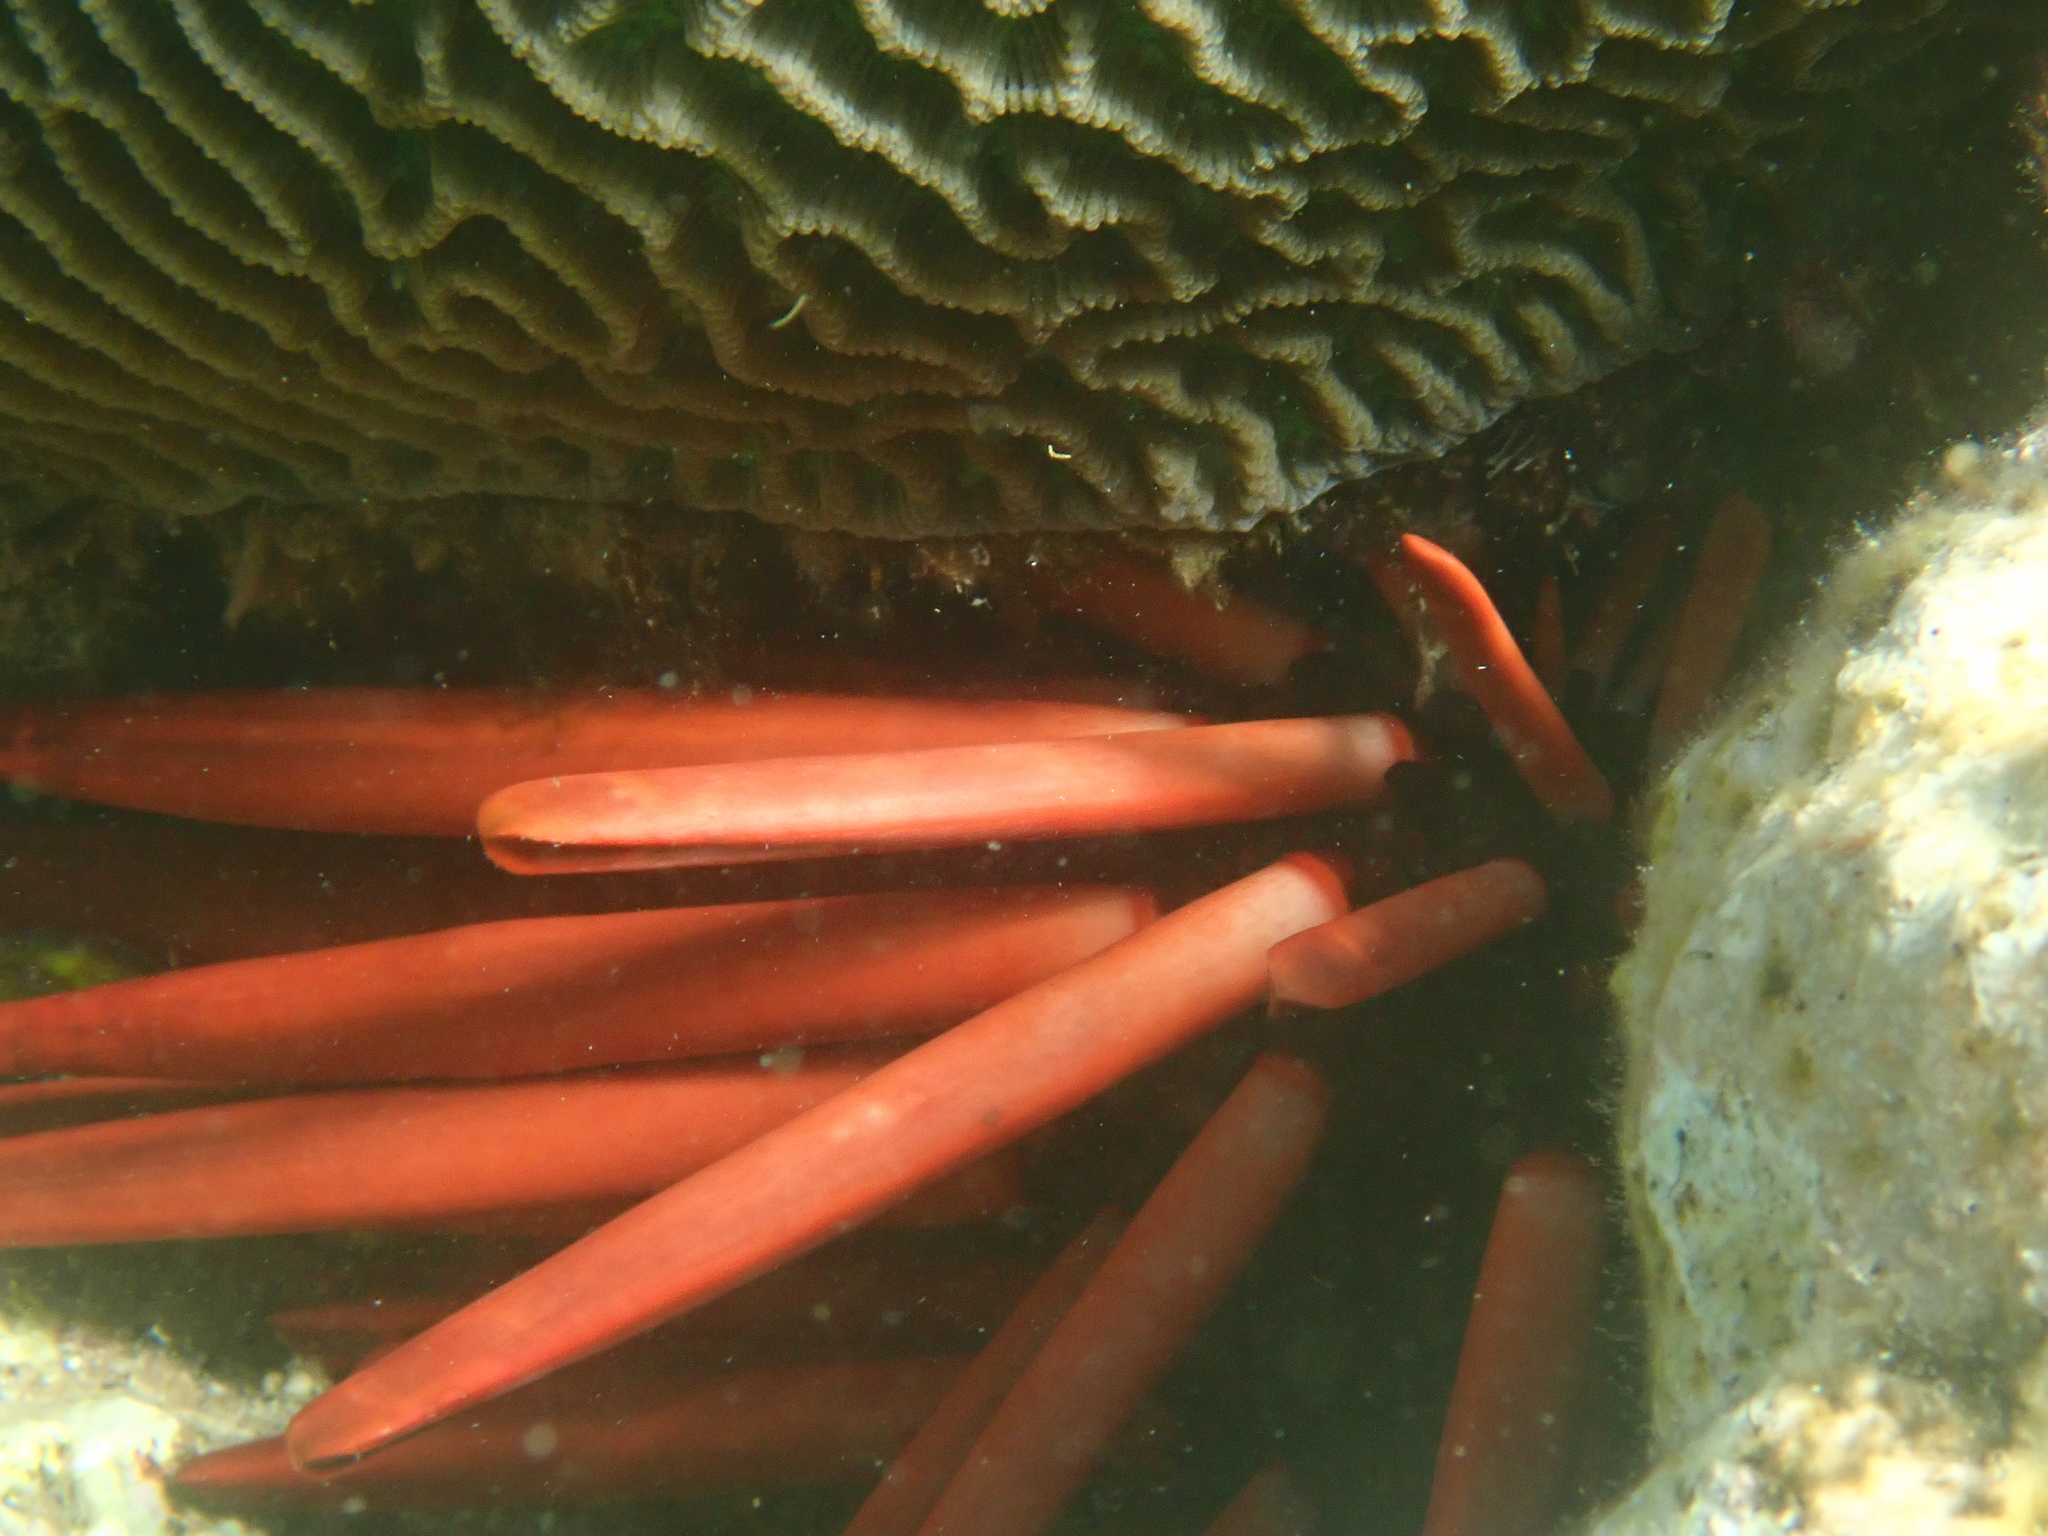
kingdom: Animalia
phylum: Echinodermata
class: Echinoidea
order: Camarodonta
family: Echinometridae
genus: Heterocentrotus
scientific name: Heterocentrotus mamillatus
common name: Slate pencil urchin
